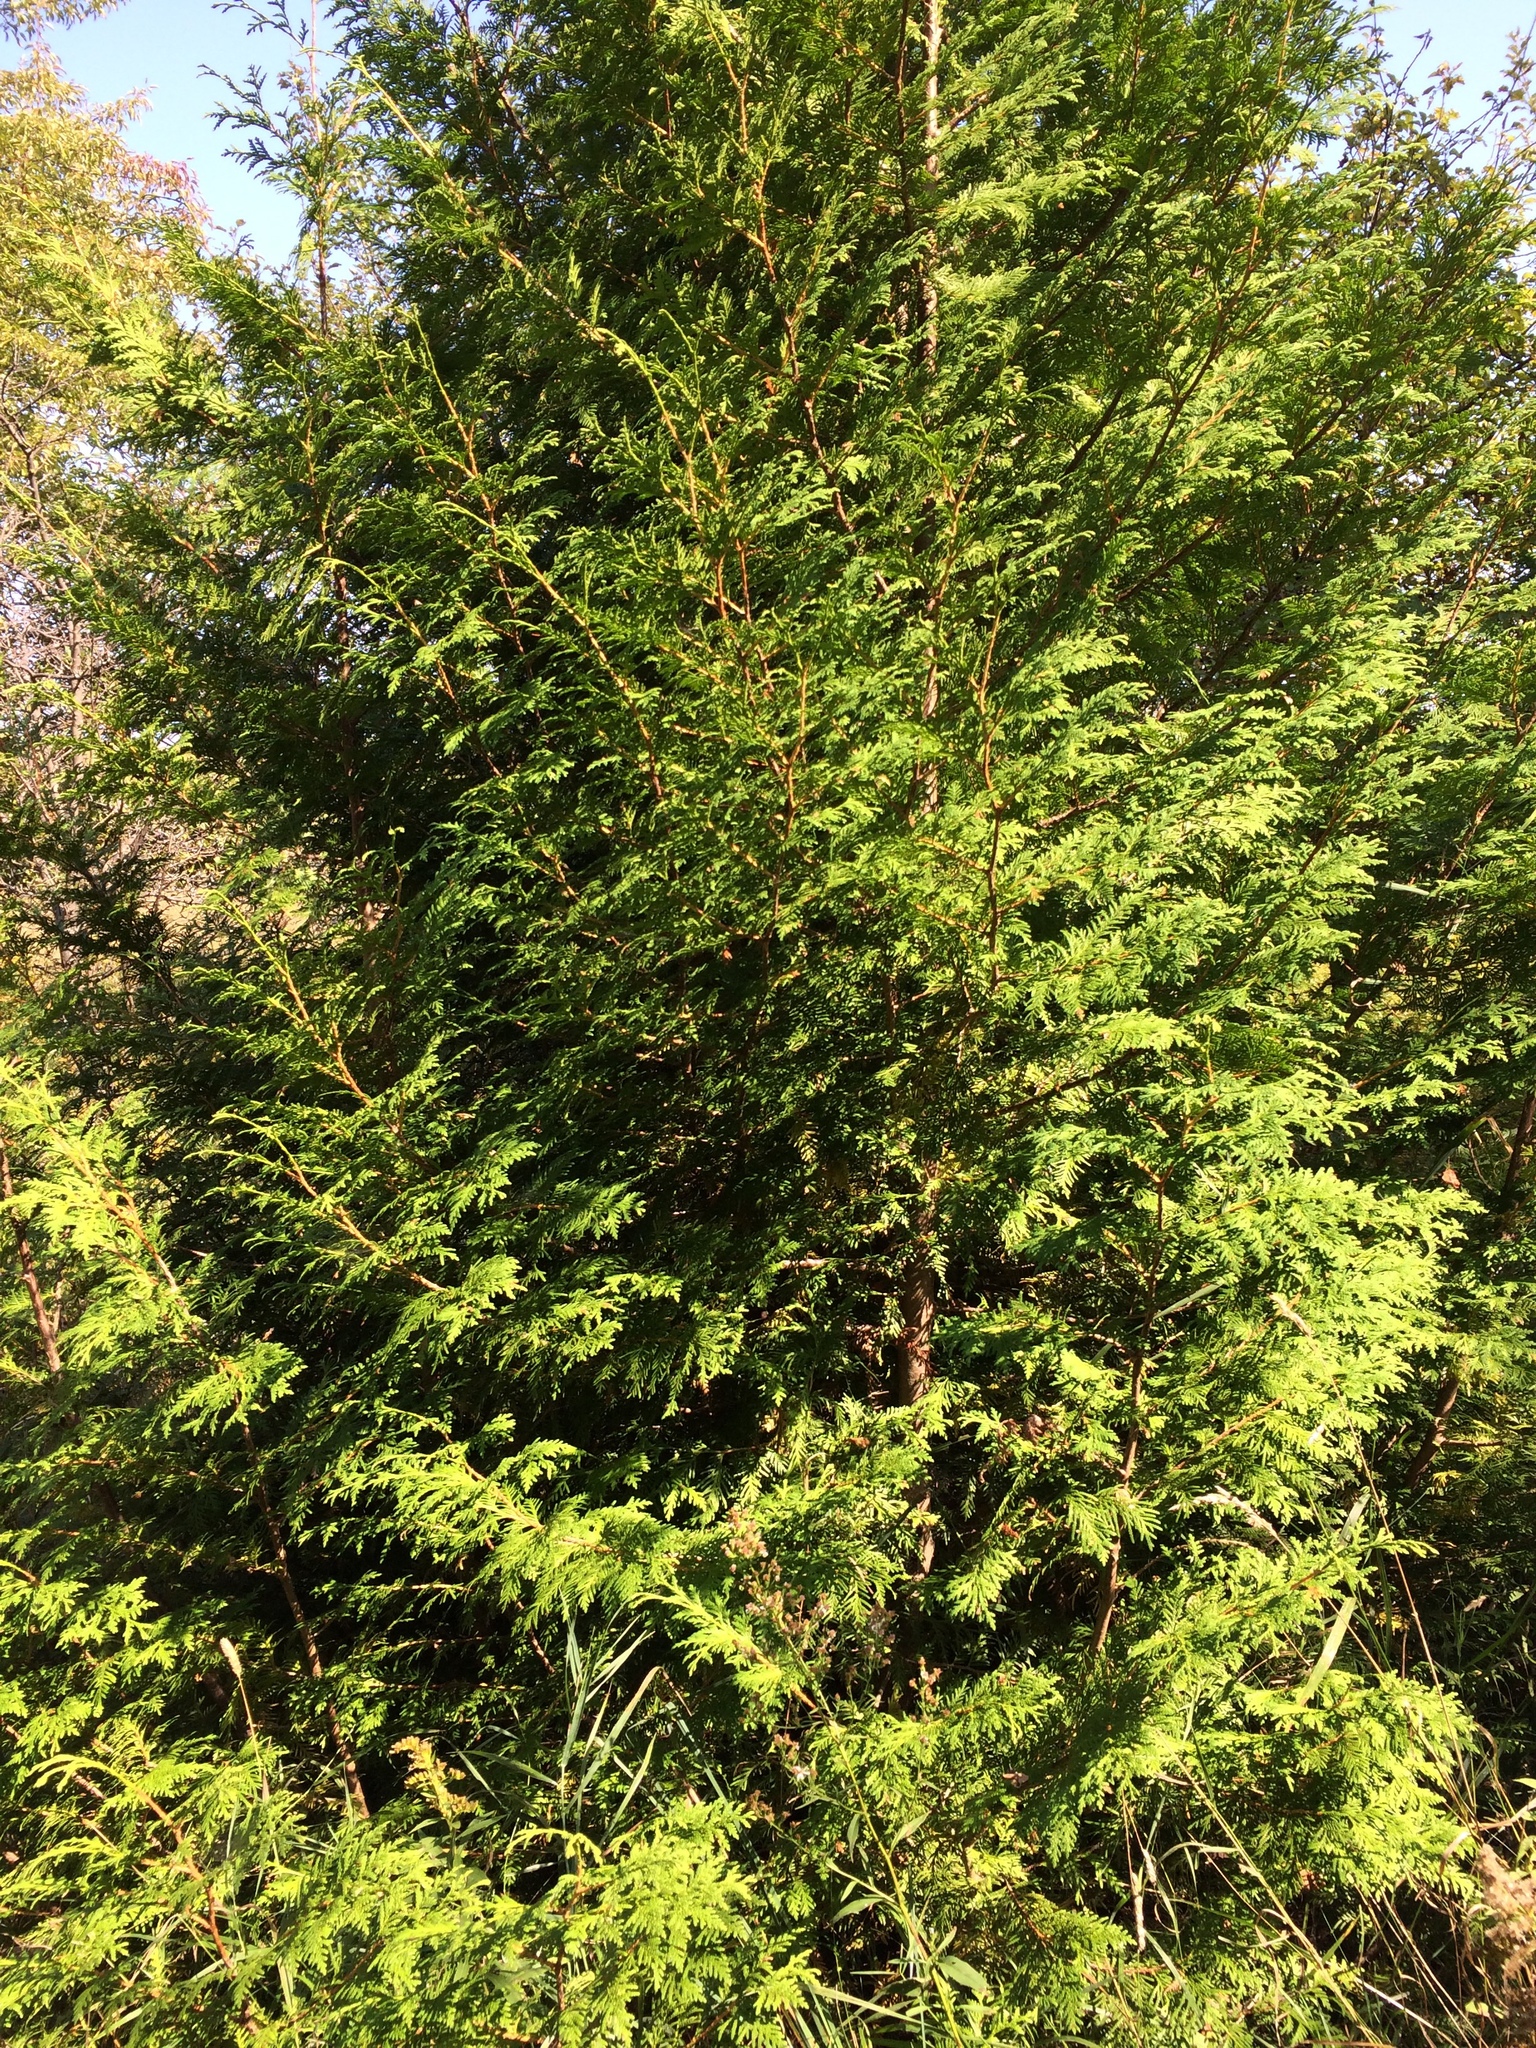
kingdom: Plantae
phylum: Tracheophyta
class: Pinopsida
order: Pinales
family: Cupressaceae
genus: Thuja
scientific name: Thuja occidentalis
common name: Northern white-cedar
